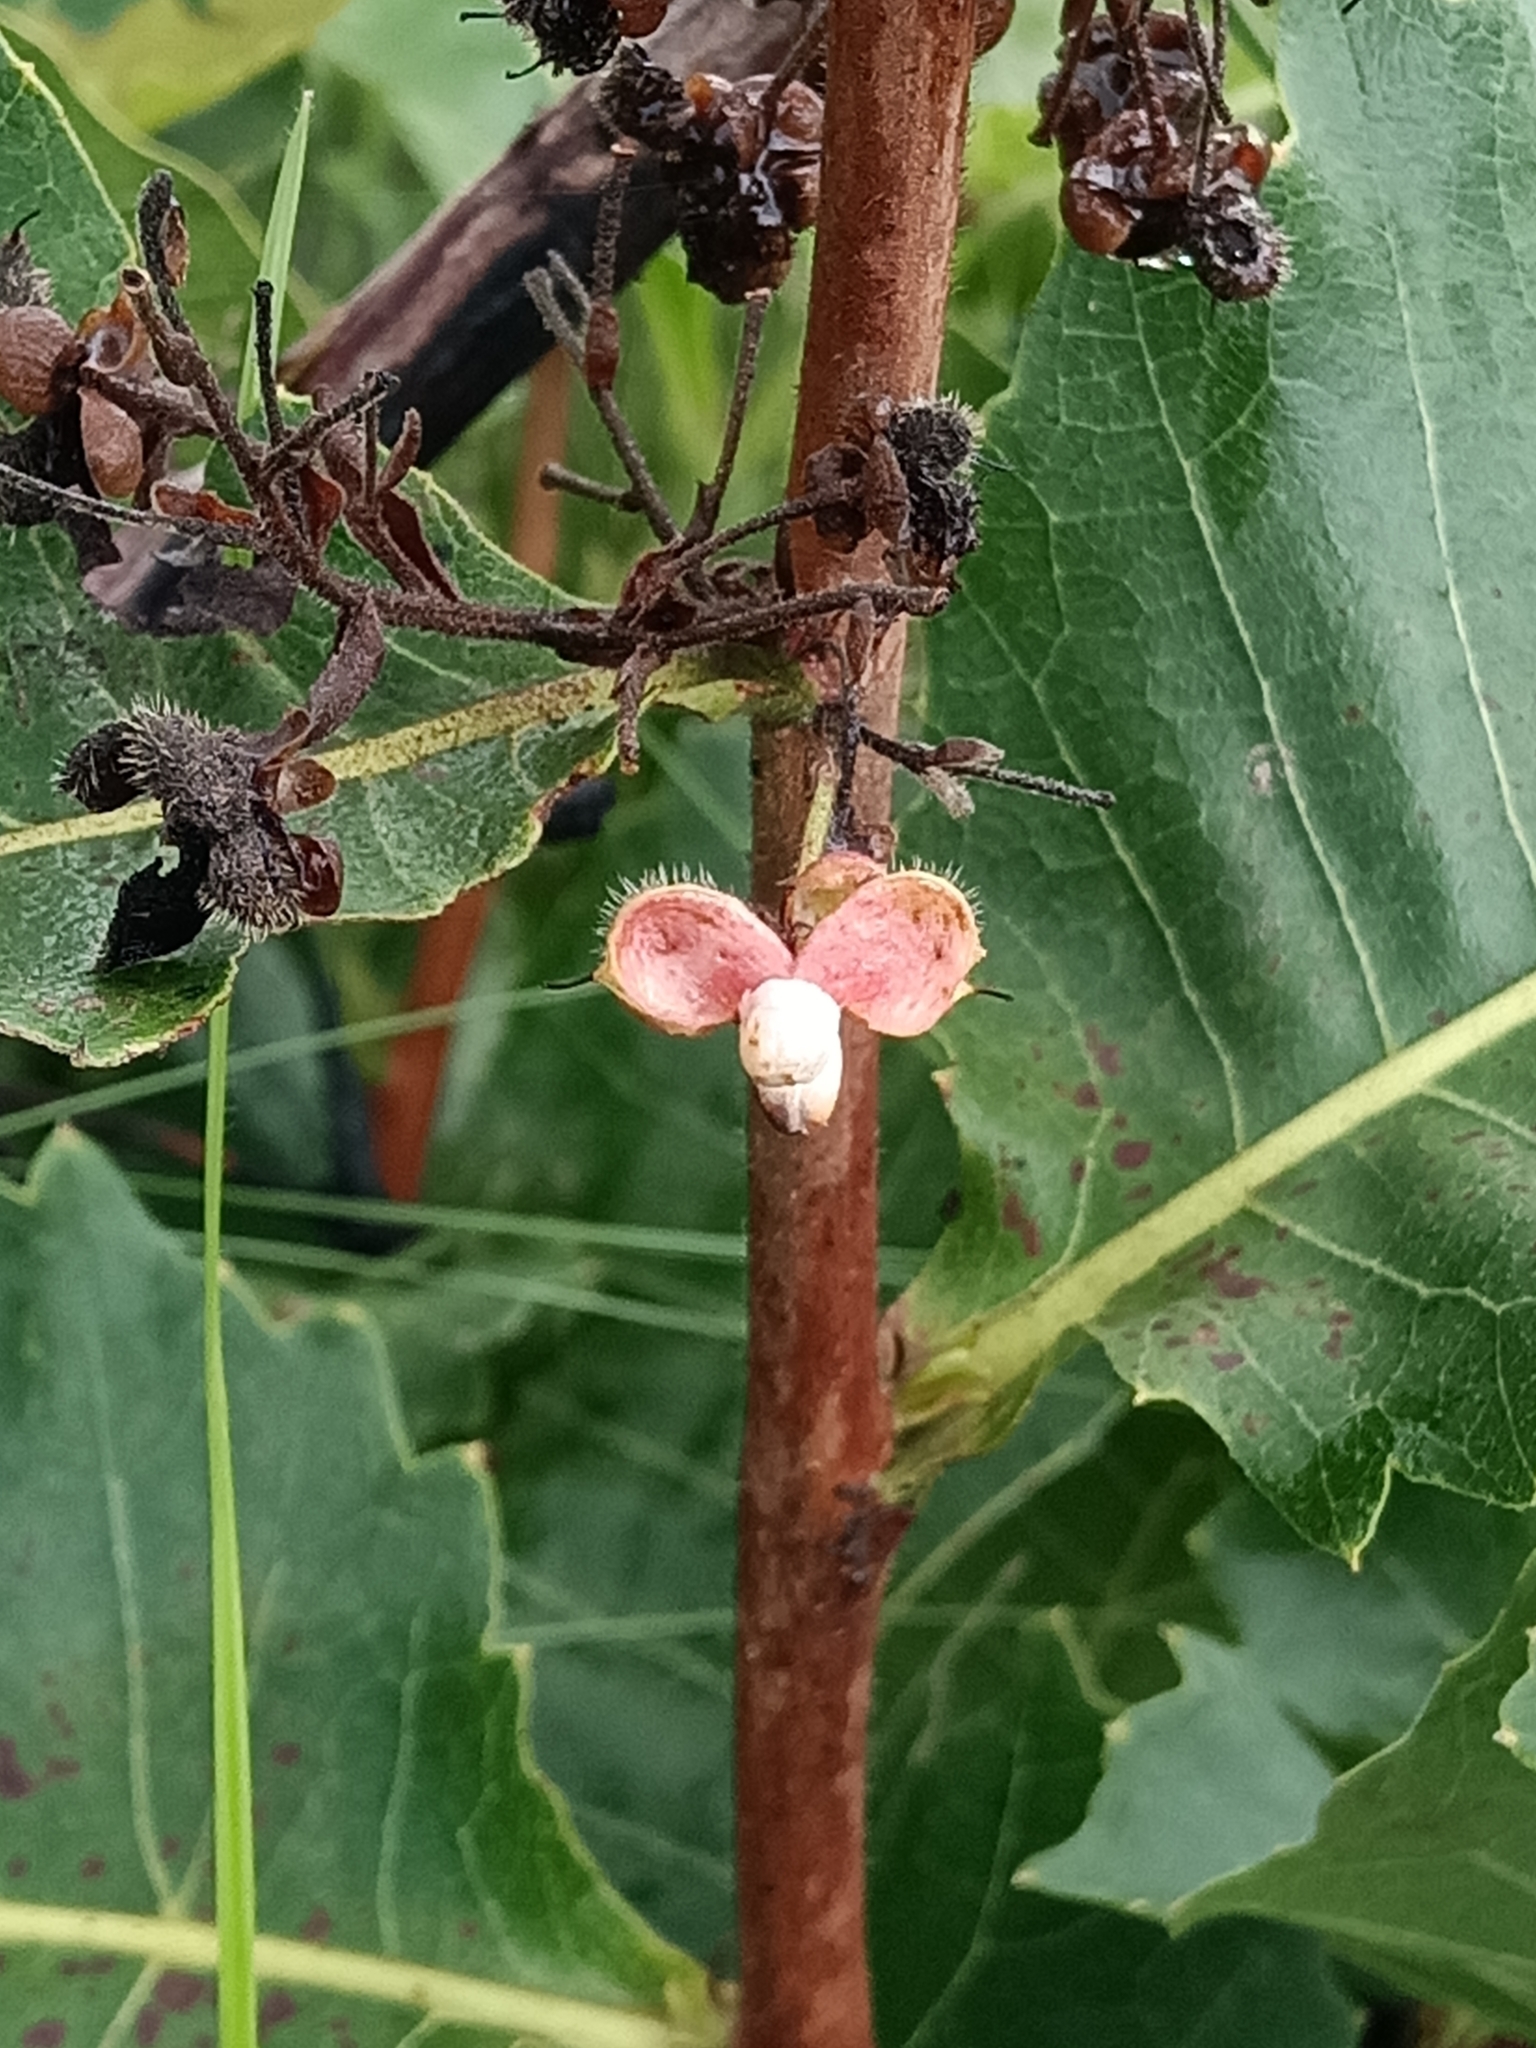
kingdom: Plantae
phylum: Tracheophyta
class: Magnoliopsida
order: Dilleniales
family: Dilleniaceae
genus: Curatella
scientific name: Curatella americana
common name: Sandpaper tree
